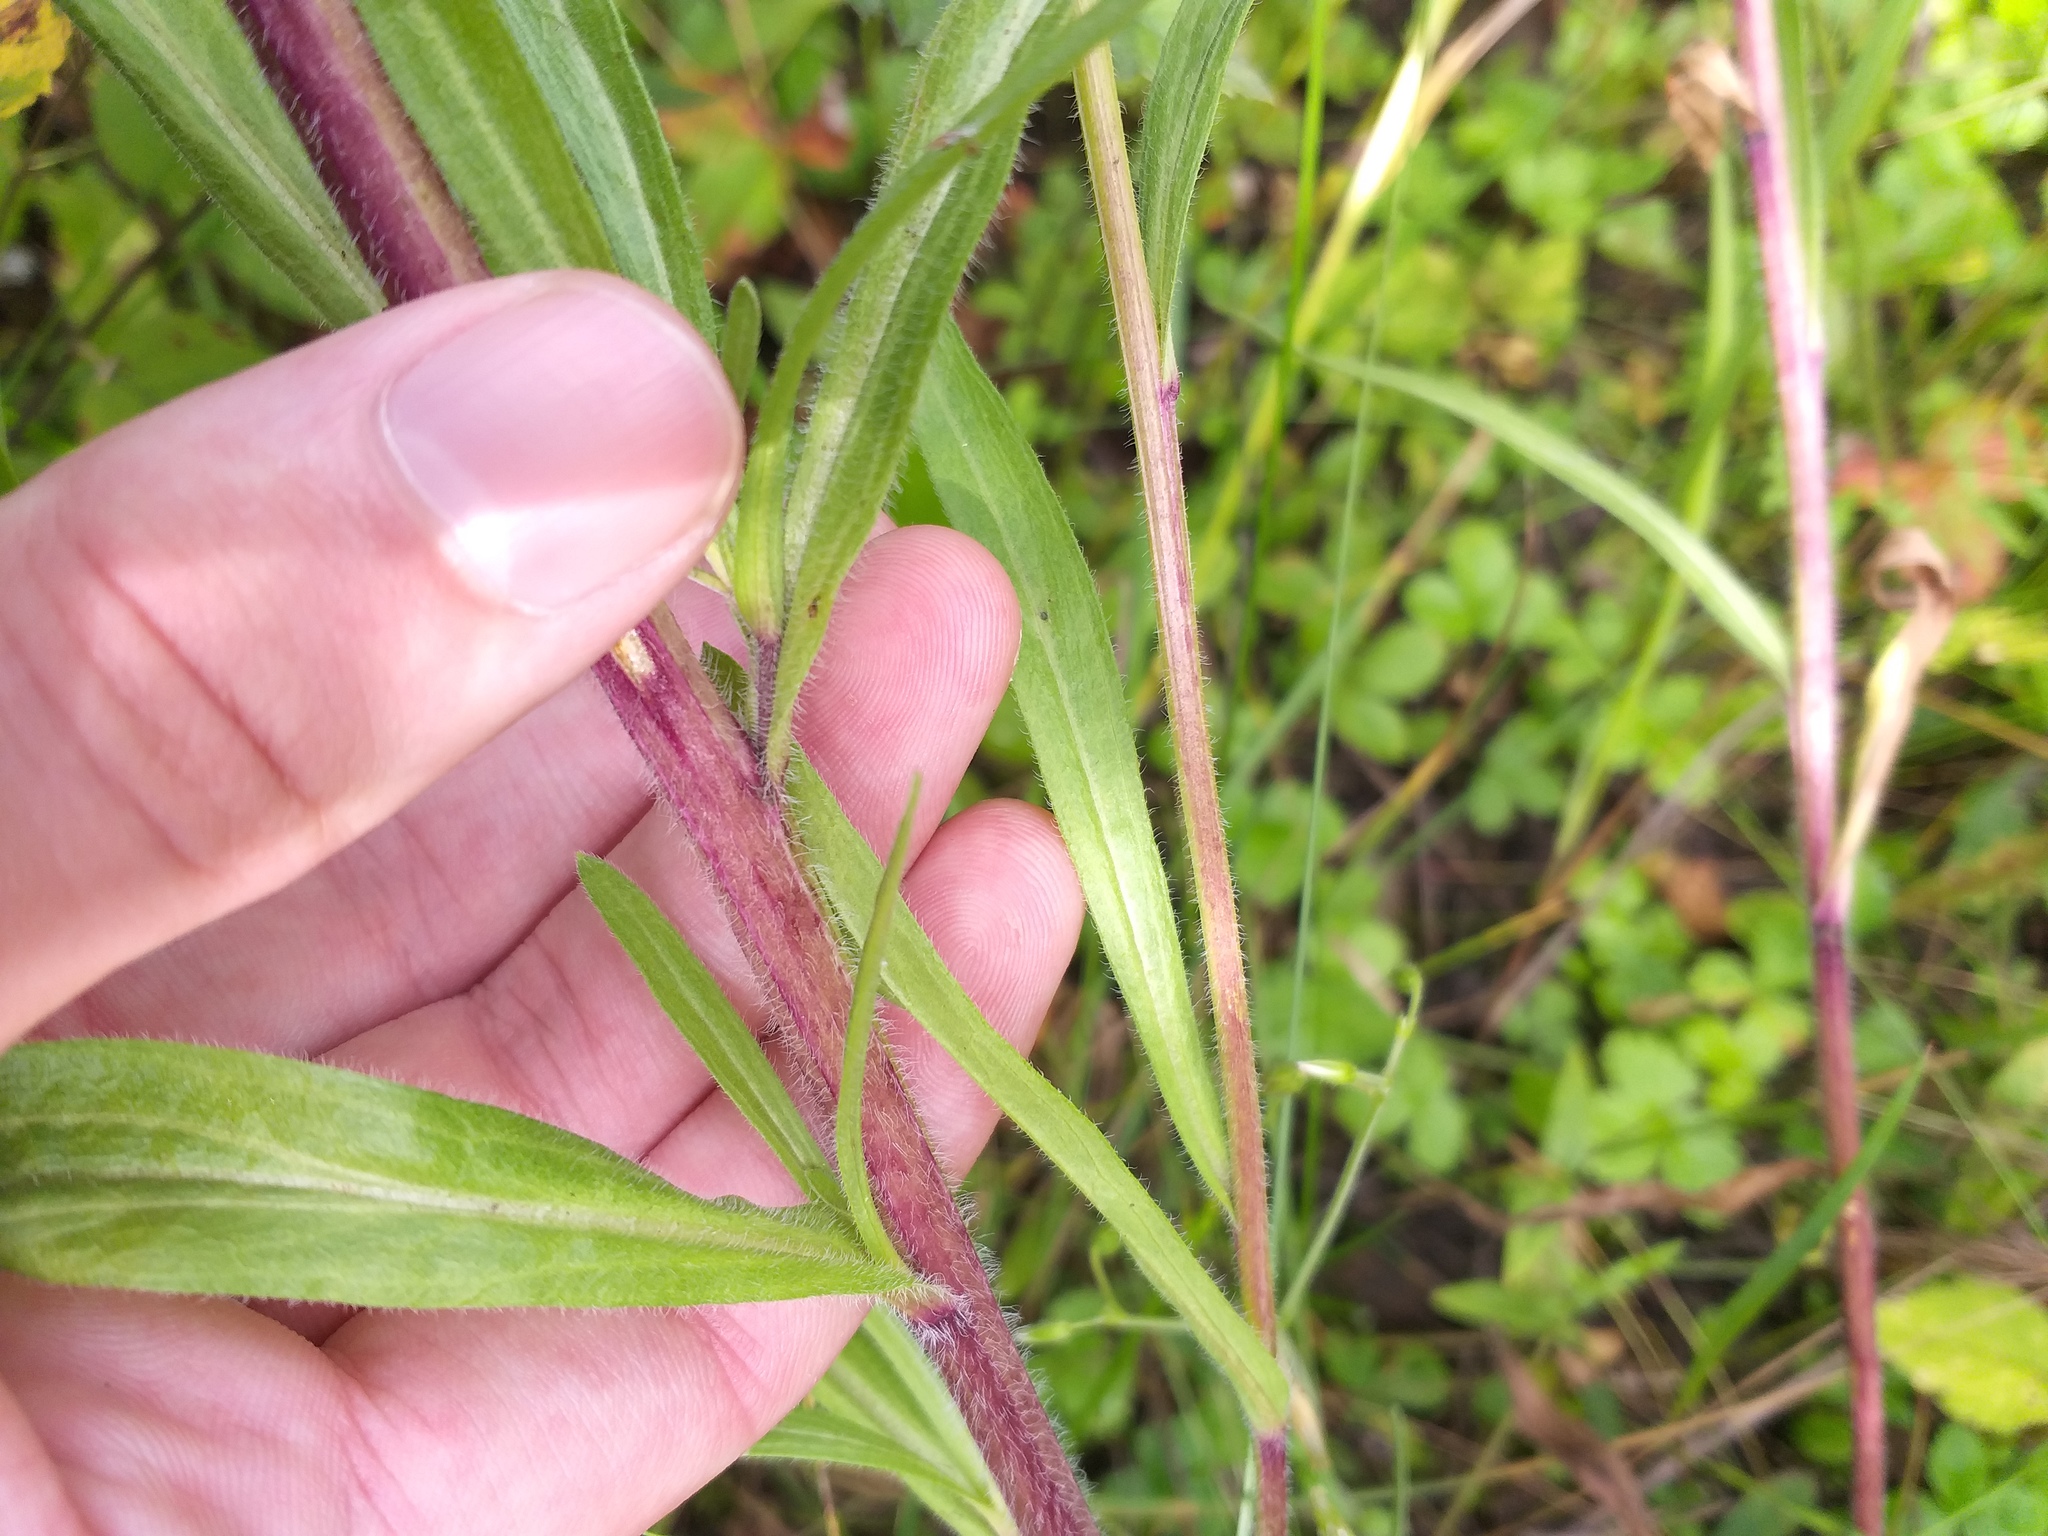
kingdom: Plantae
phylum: Tracheophyta
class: Magnoliopsida
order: Asterales
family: Asteraceae
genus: Erigeron
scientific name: Erigeron acris
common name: Blue fleabane
